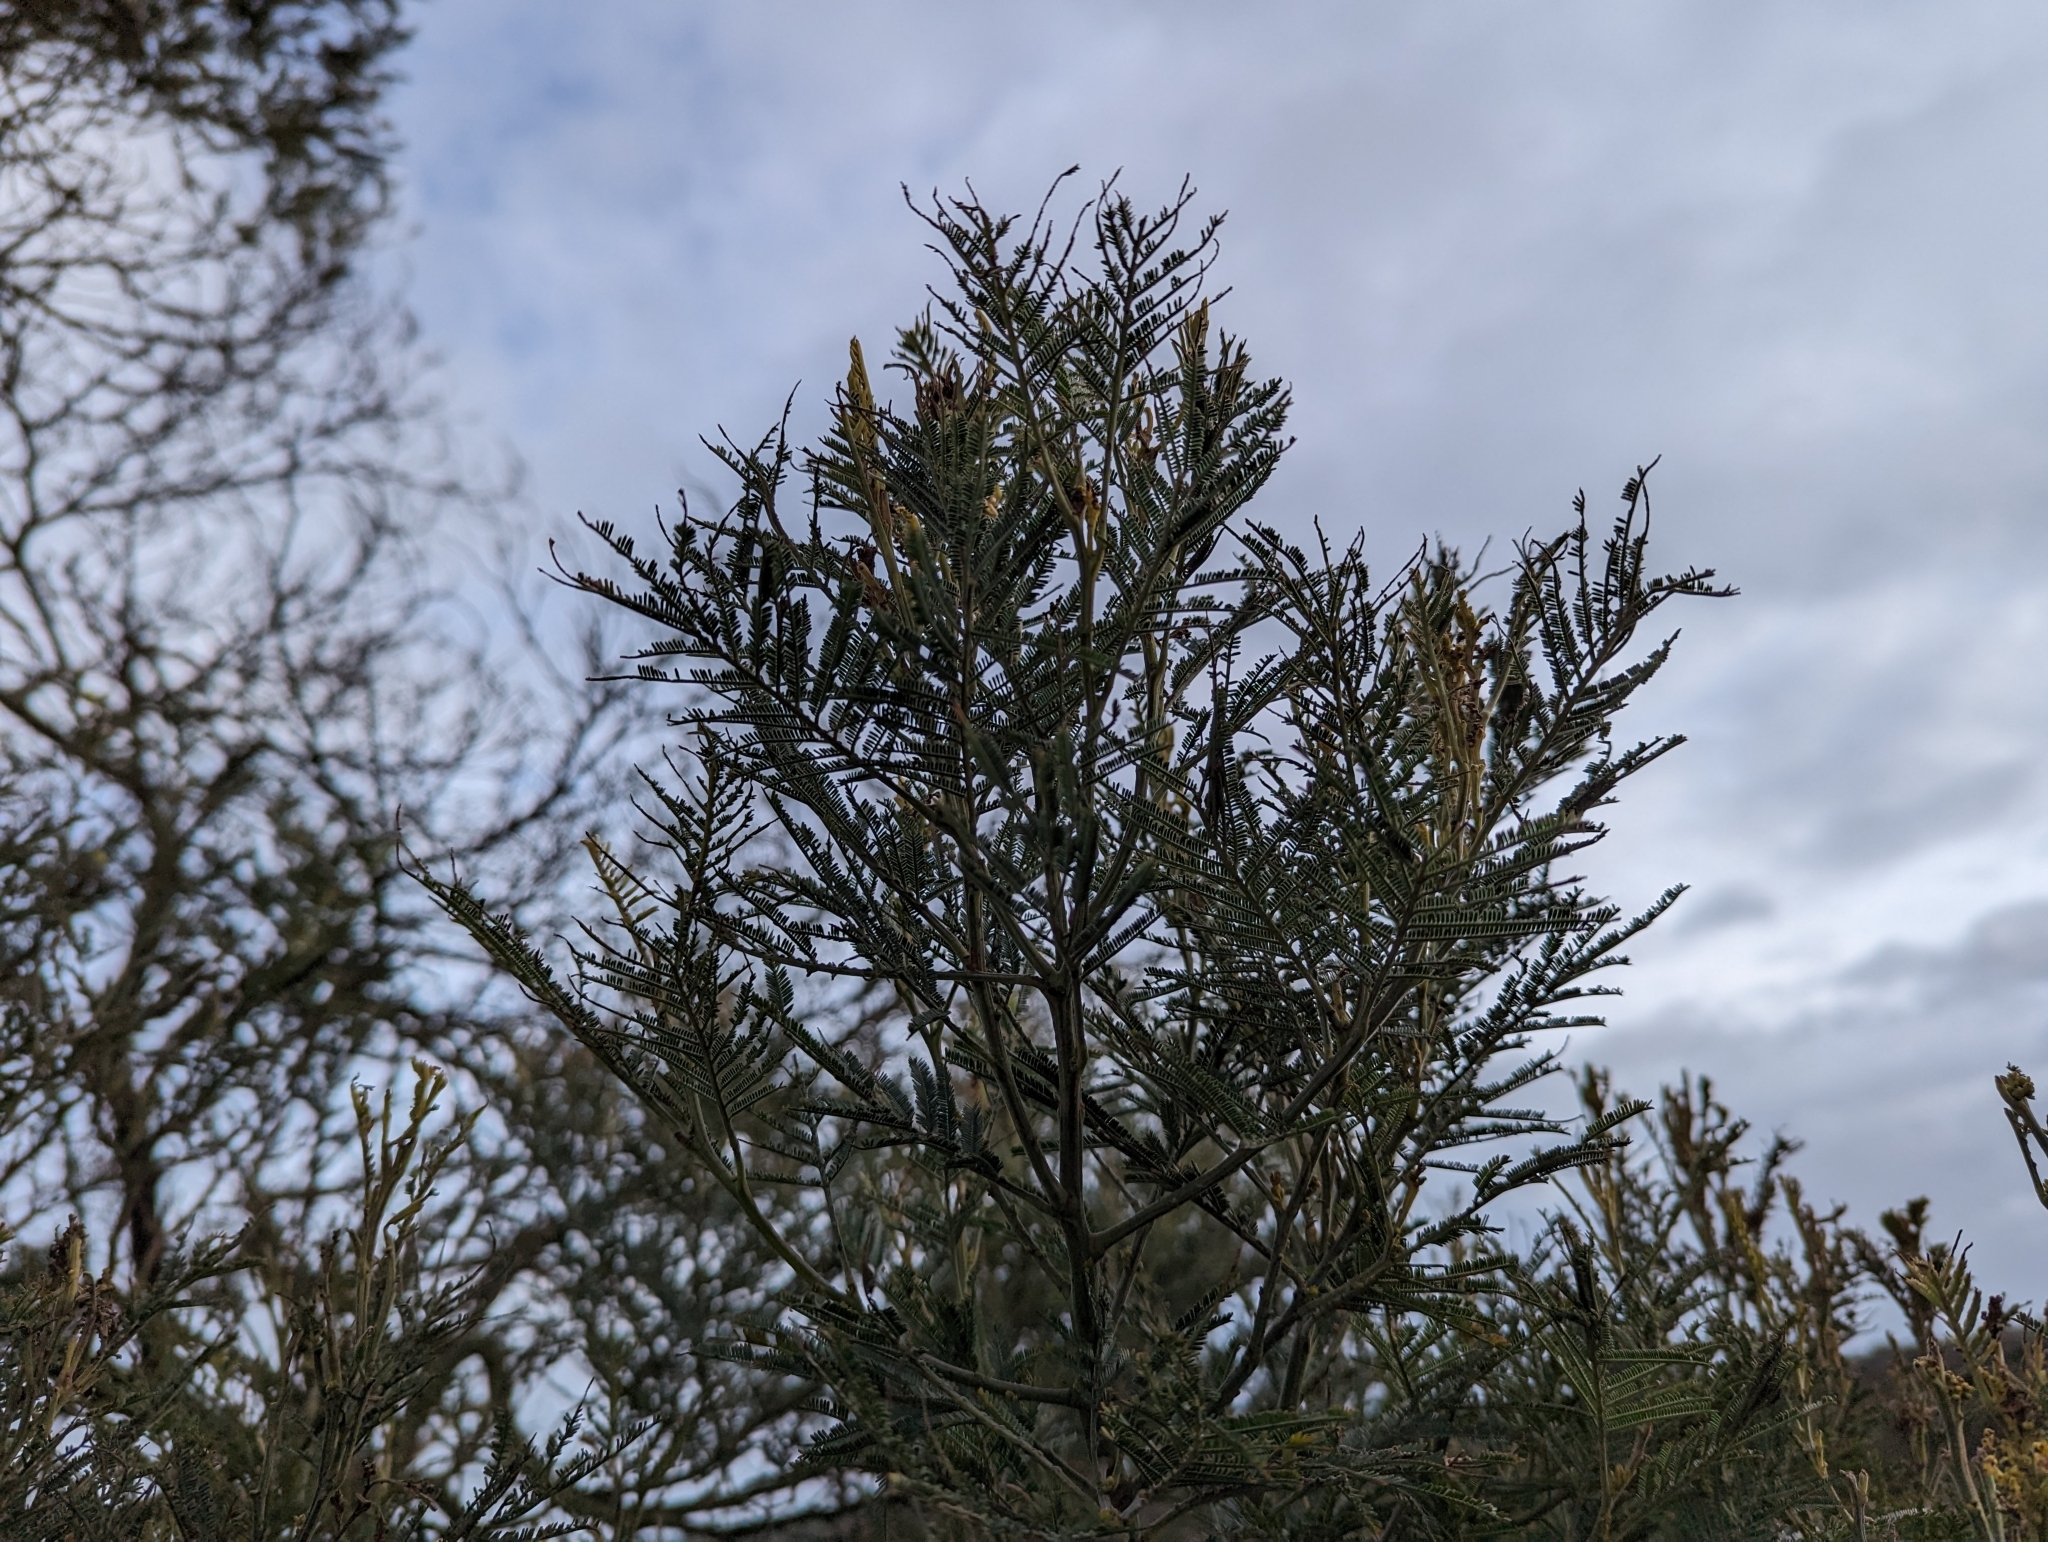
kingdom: Plantae
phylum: Tracheophyta
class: Magnoliopsida
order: Fabales
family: Fabaceae
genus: Acacia
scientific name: Acacia mearnsii
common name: Black wattle
